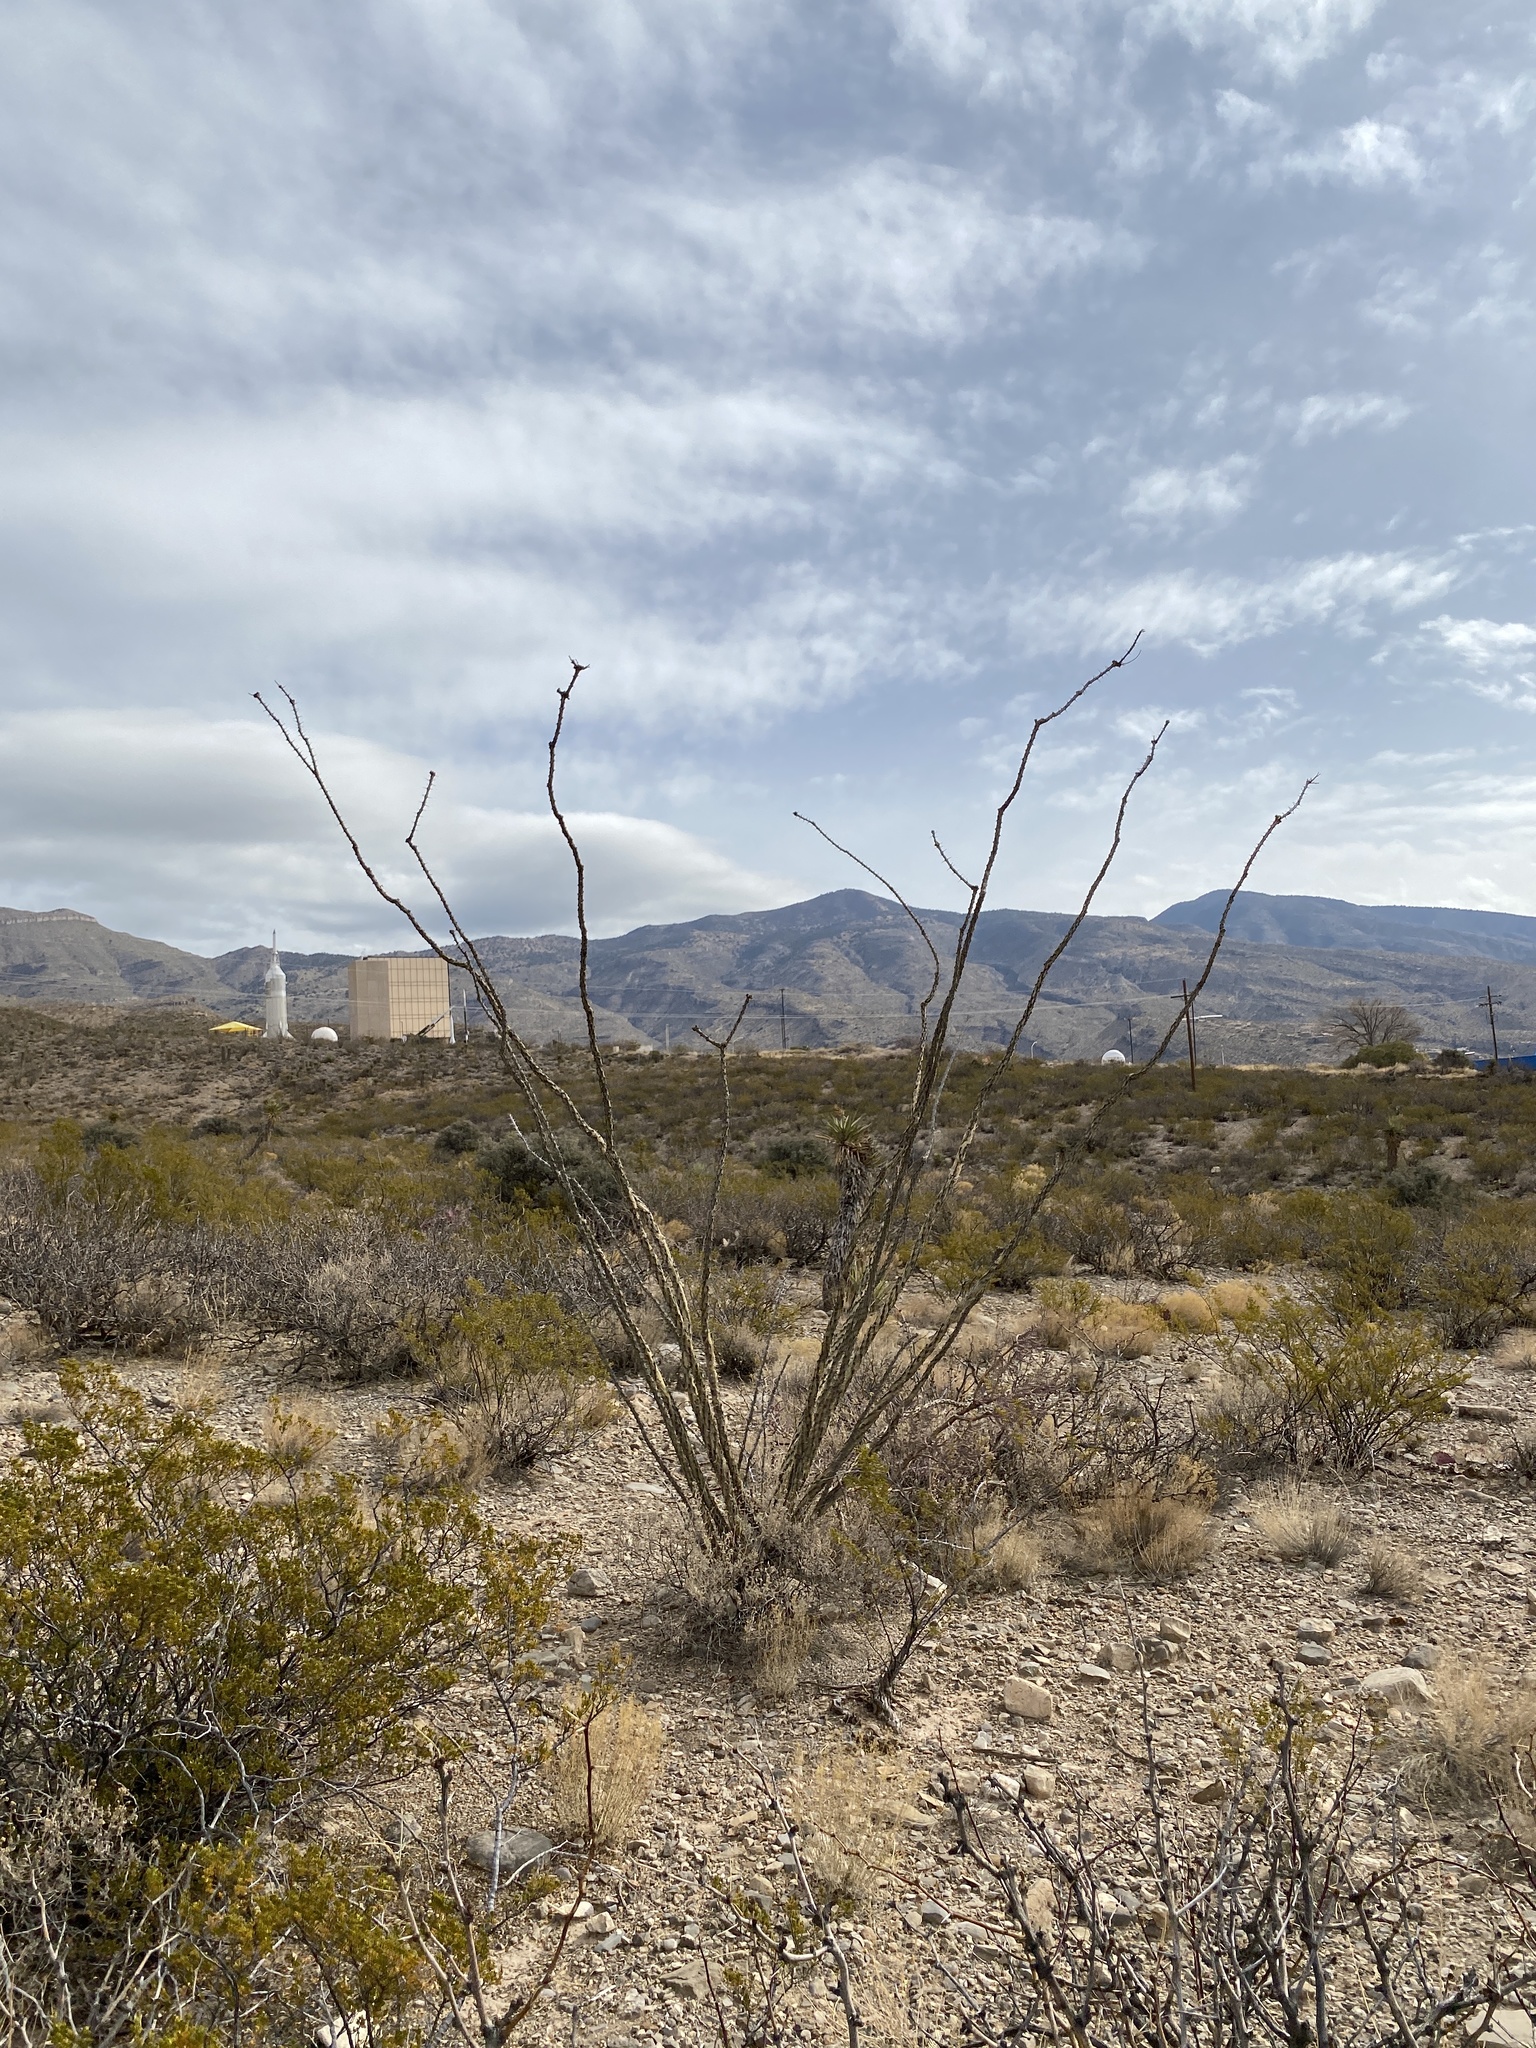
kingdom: Plantae
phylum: Tracheophyta
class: Magnoliopsida
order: Ericales
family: Fouquieriaceae
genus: Fouquieria
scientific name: Fouquieria splendens
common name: Vine-cactus
